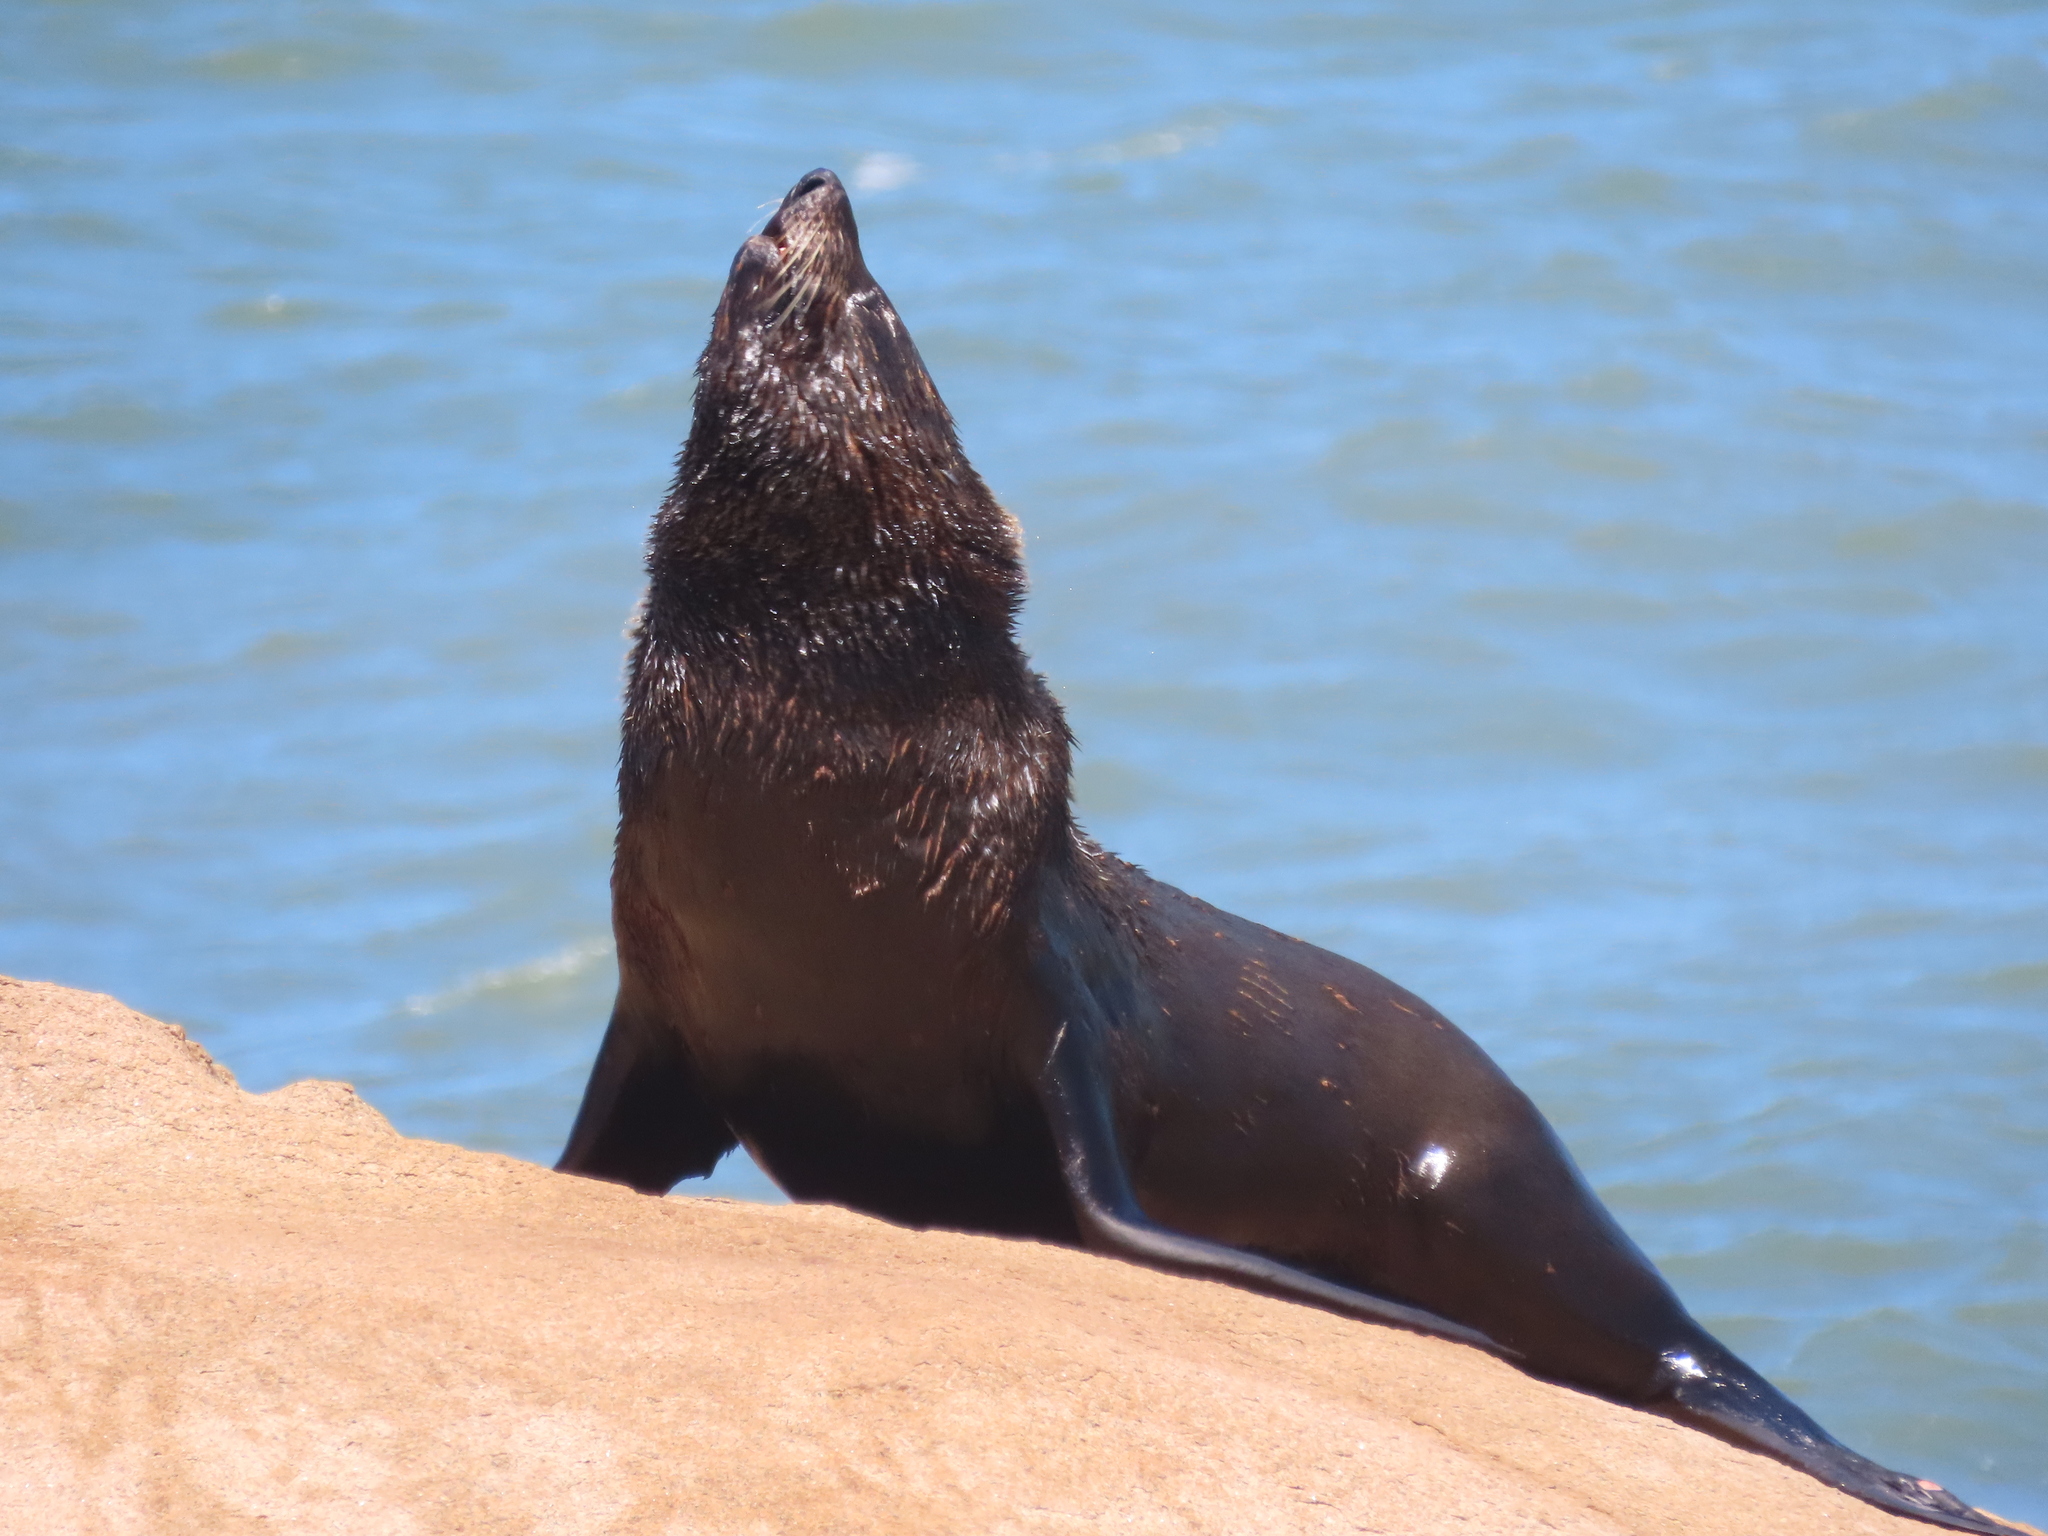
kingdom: Animalia
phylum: Chordata
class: Mammalia
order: Carnivora
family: Otariidae
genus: Arctocephalus
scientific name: Arctocephalus australis
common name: South american fur seal
